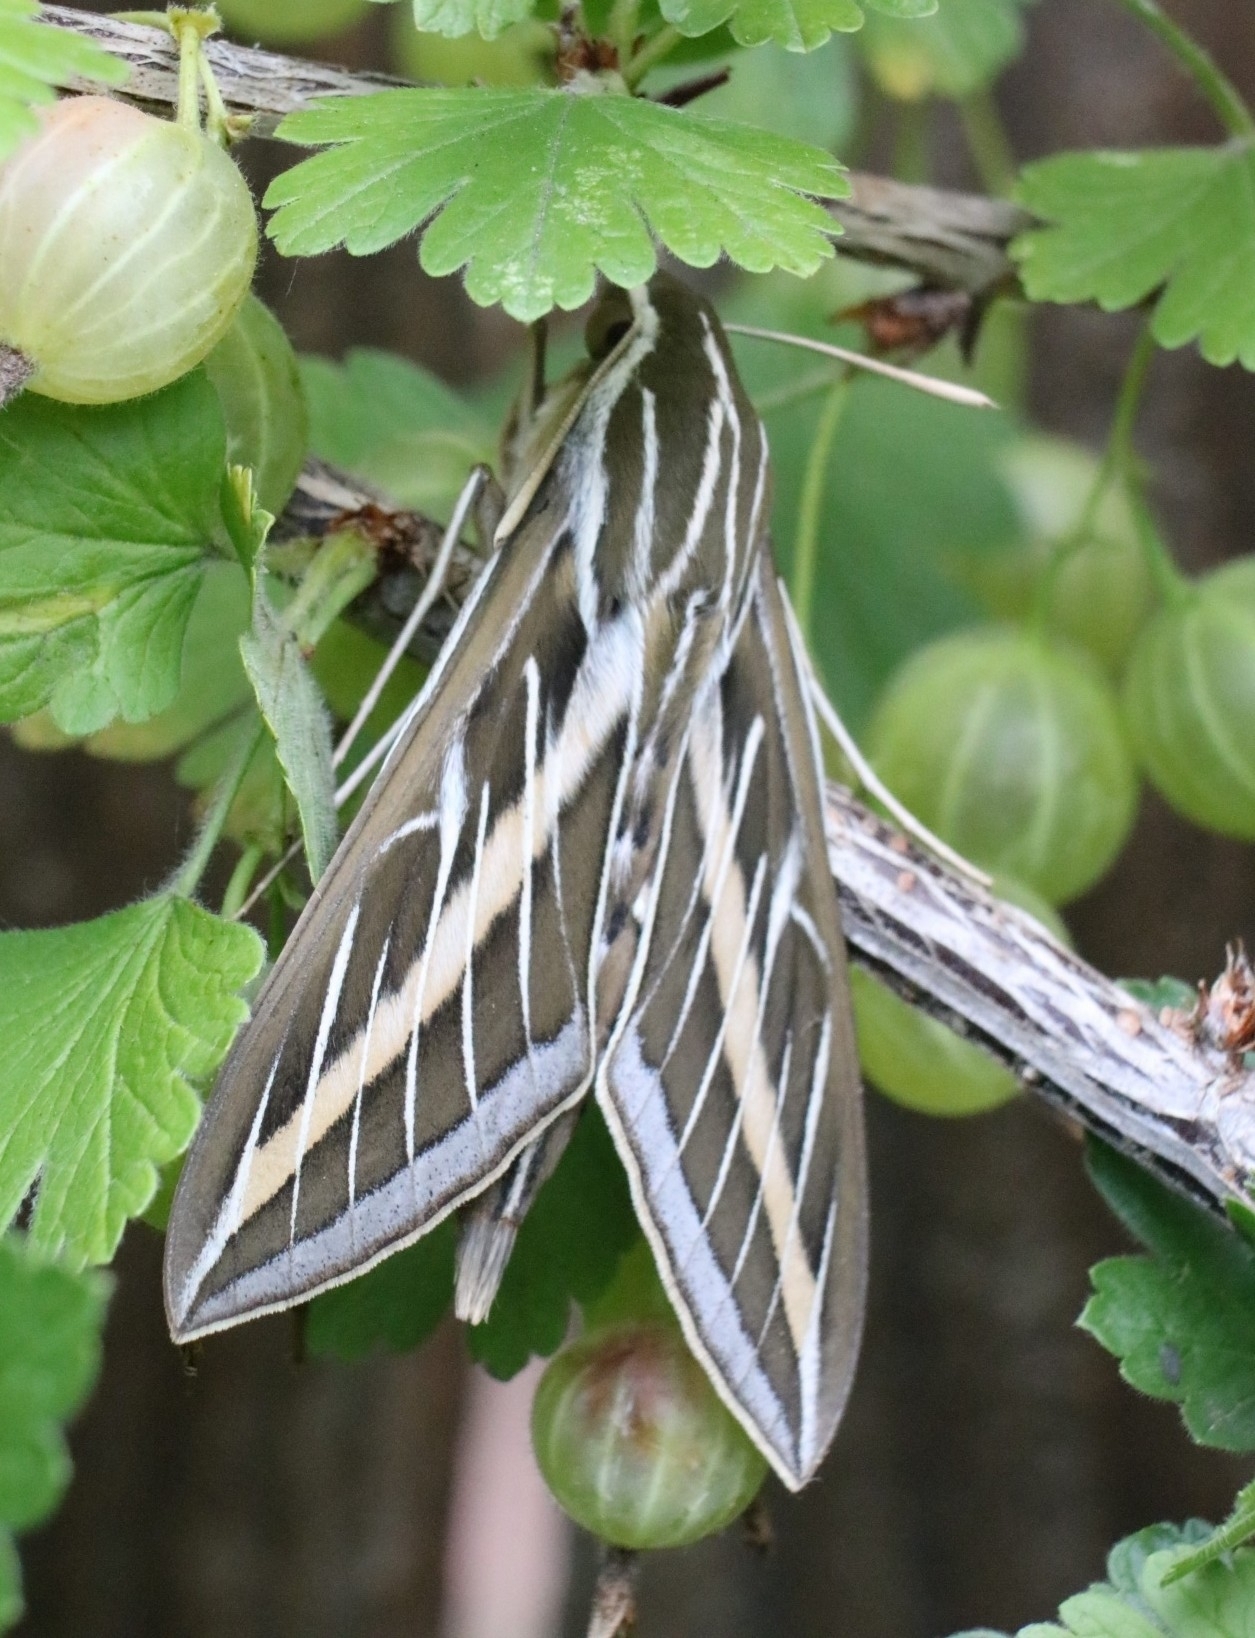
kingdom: Animalia
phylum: Arthropoda
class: Insecta
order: Lepidoptera
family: Sphingidae
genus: Hyles
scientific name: Hyles lineata
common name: White-lined sphinx
